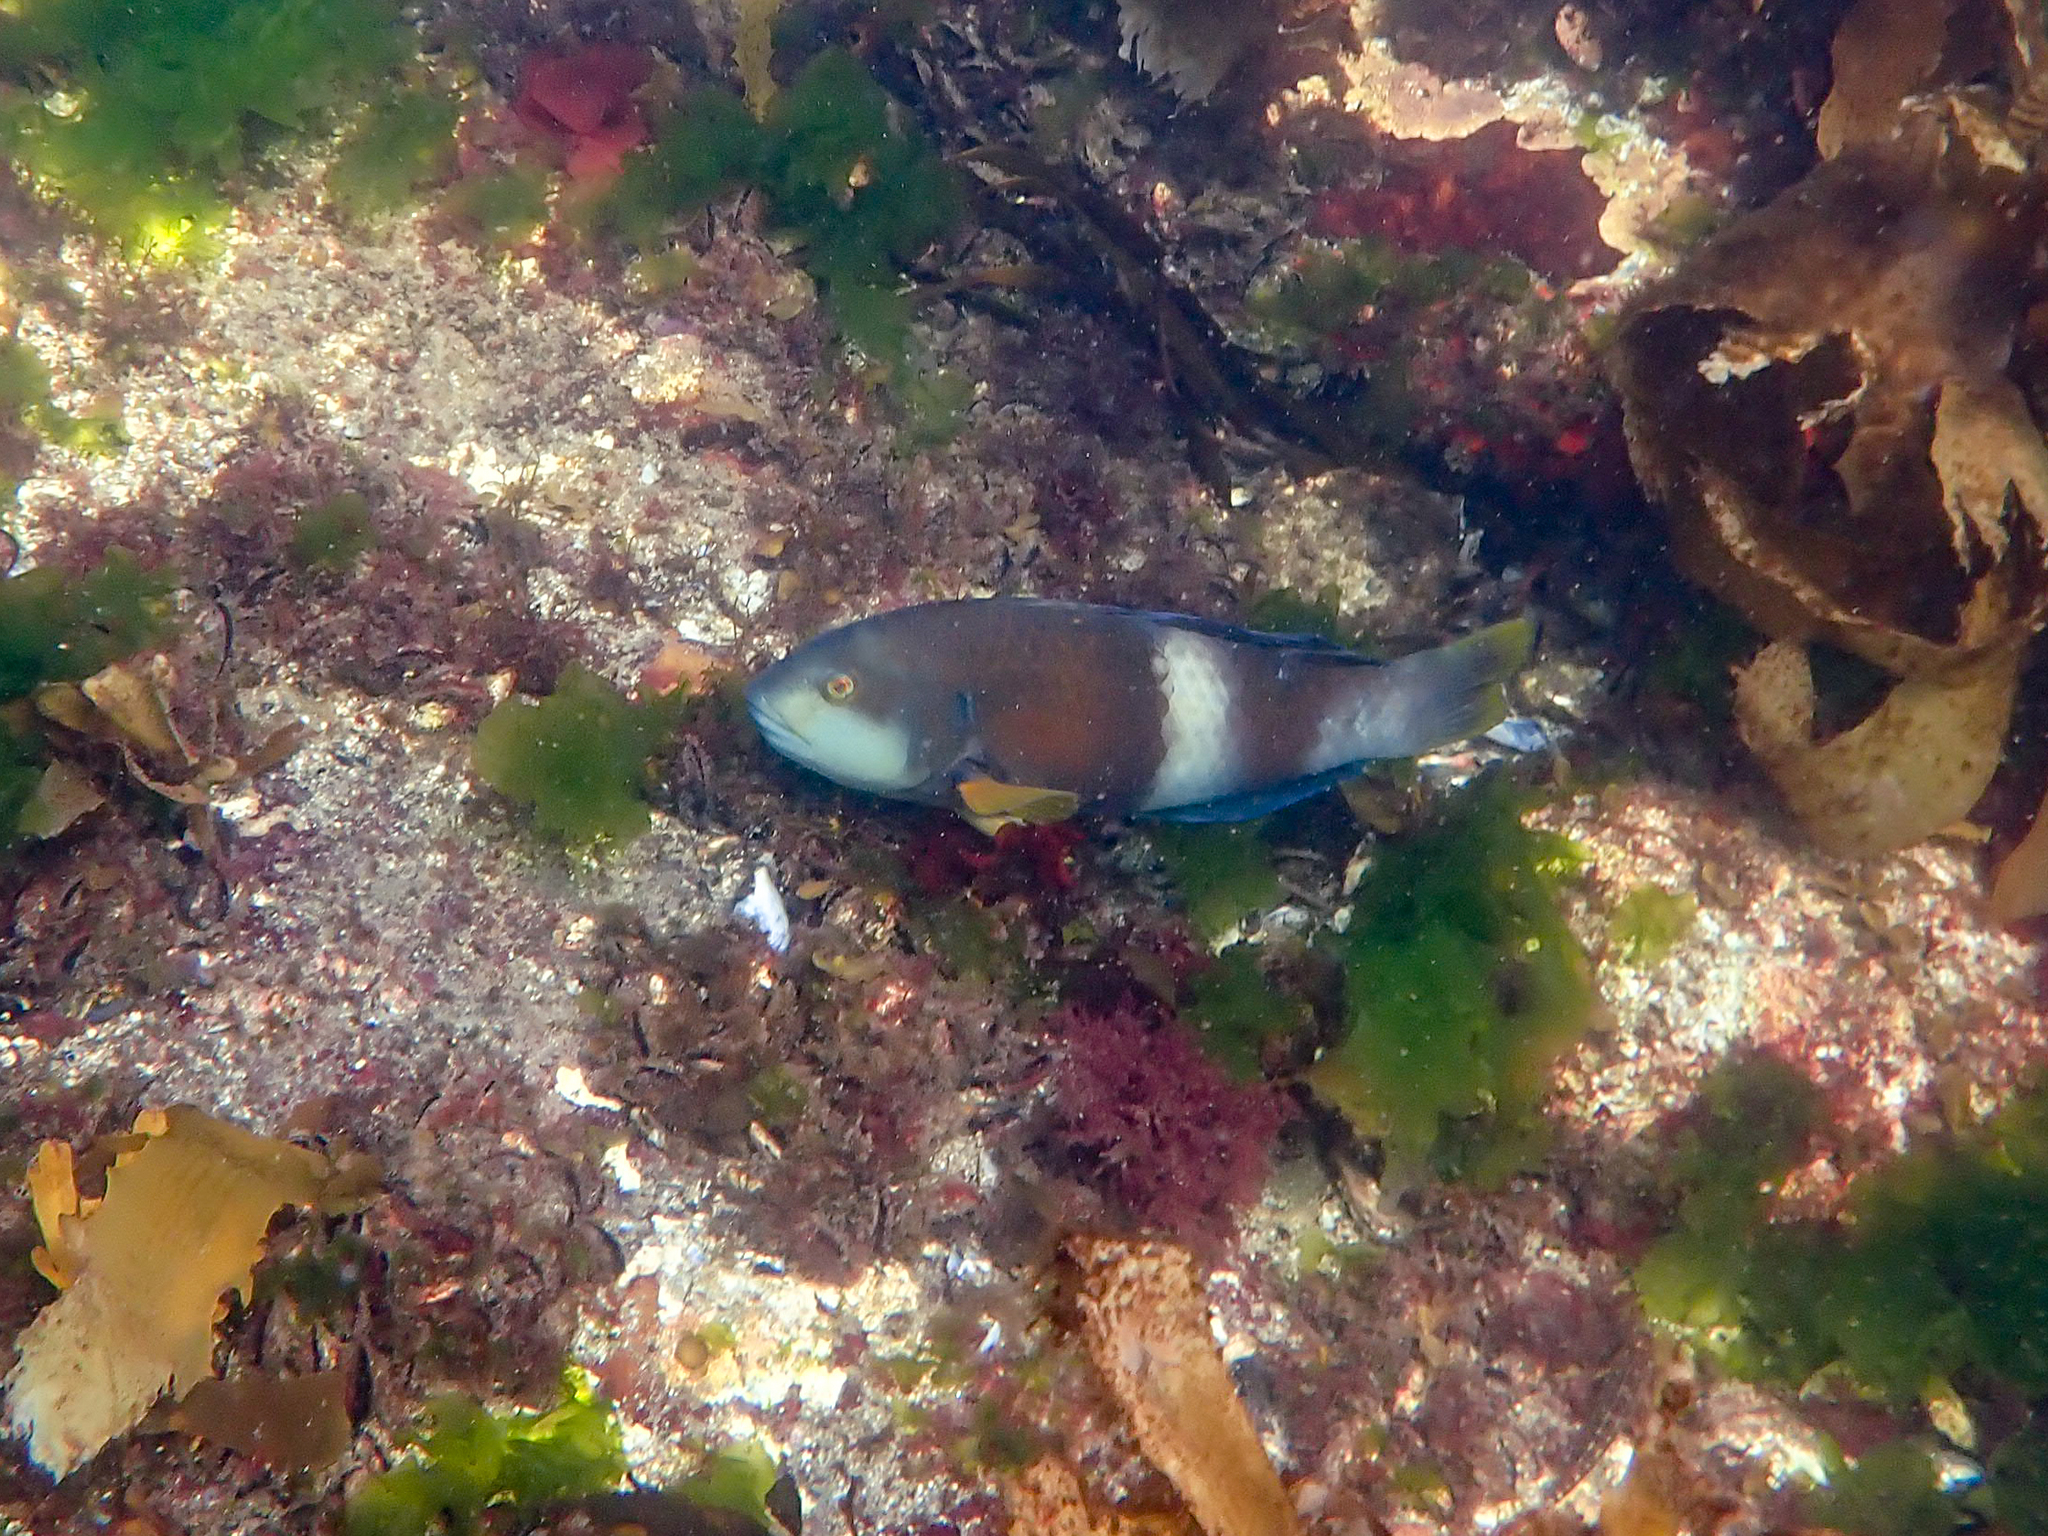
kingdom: Animalia
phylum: Chordata
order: Perciformes
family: Labridae
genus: Notolabrus
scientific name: Notolabrus tetricus
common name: Blue-throated parrotfish
